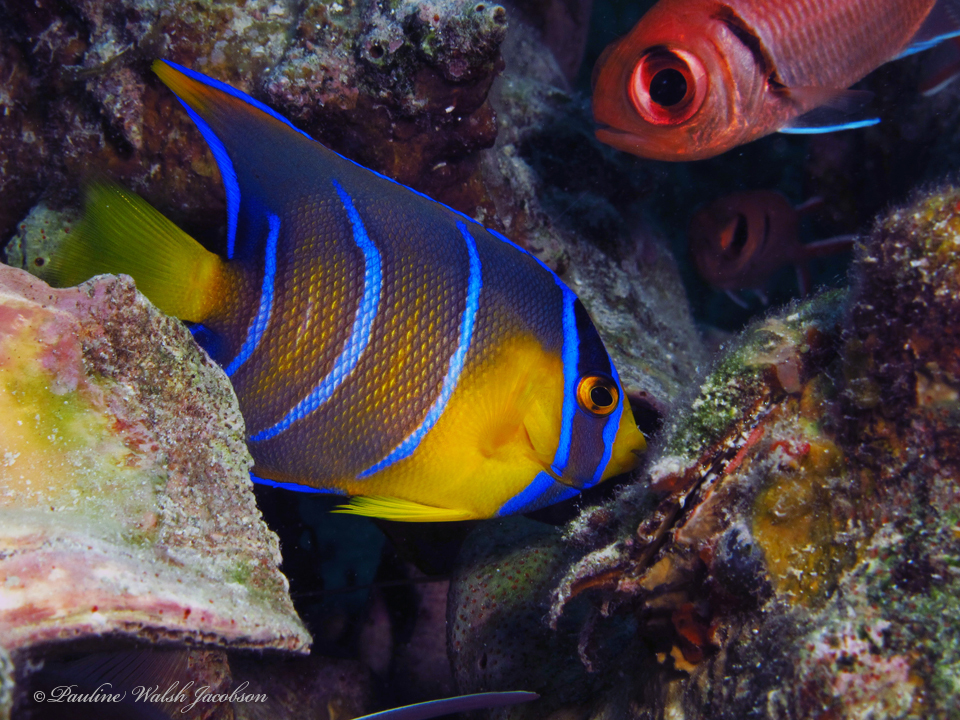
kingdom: Animalia
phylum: Chordata
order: Perciformes
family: Pomacanthidae
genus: Holacanthus
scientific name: Holacanthus ciliaris
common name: Queen angelfish
